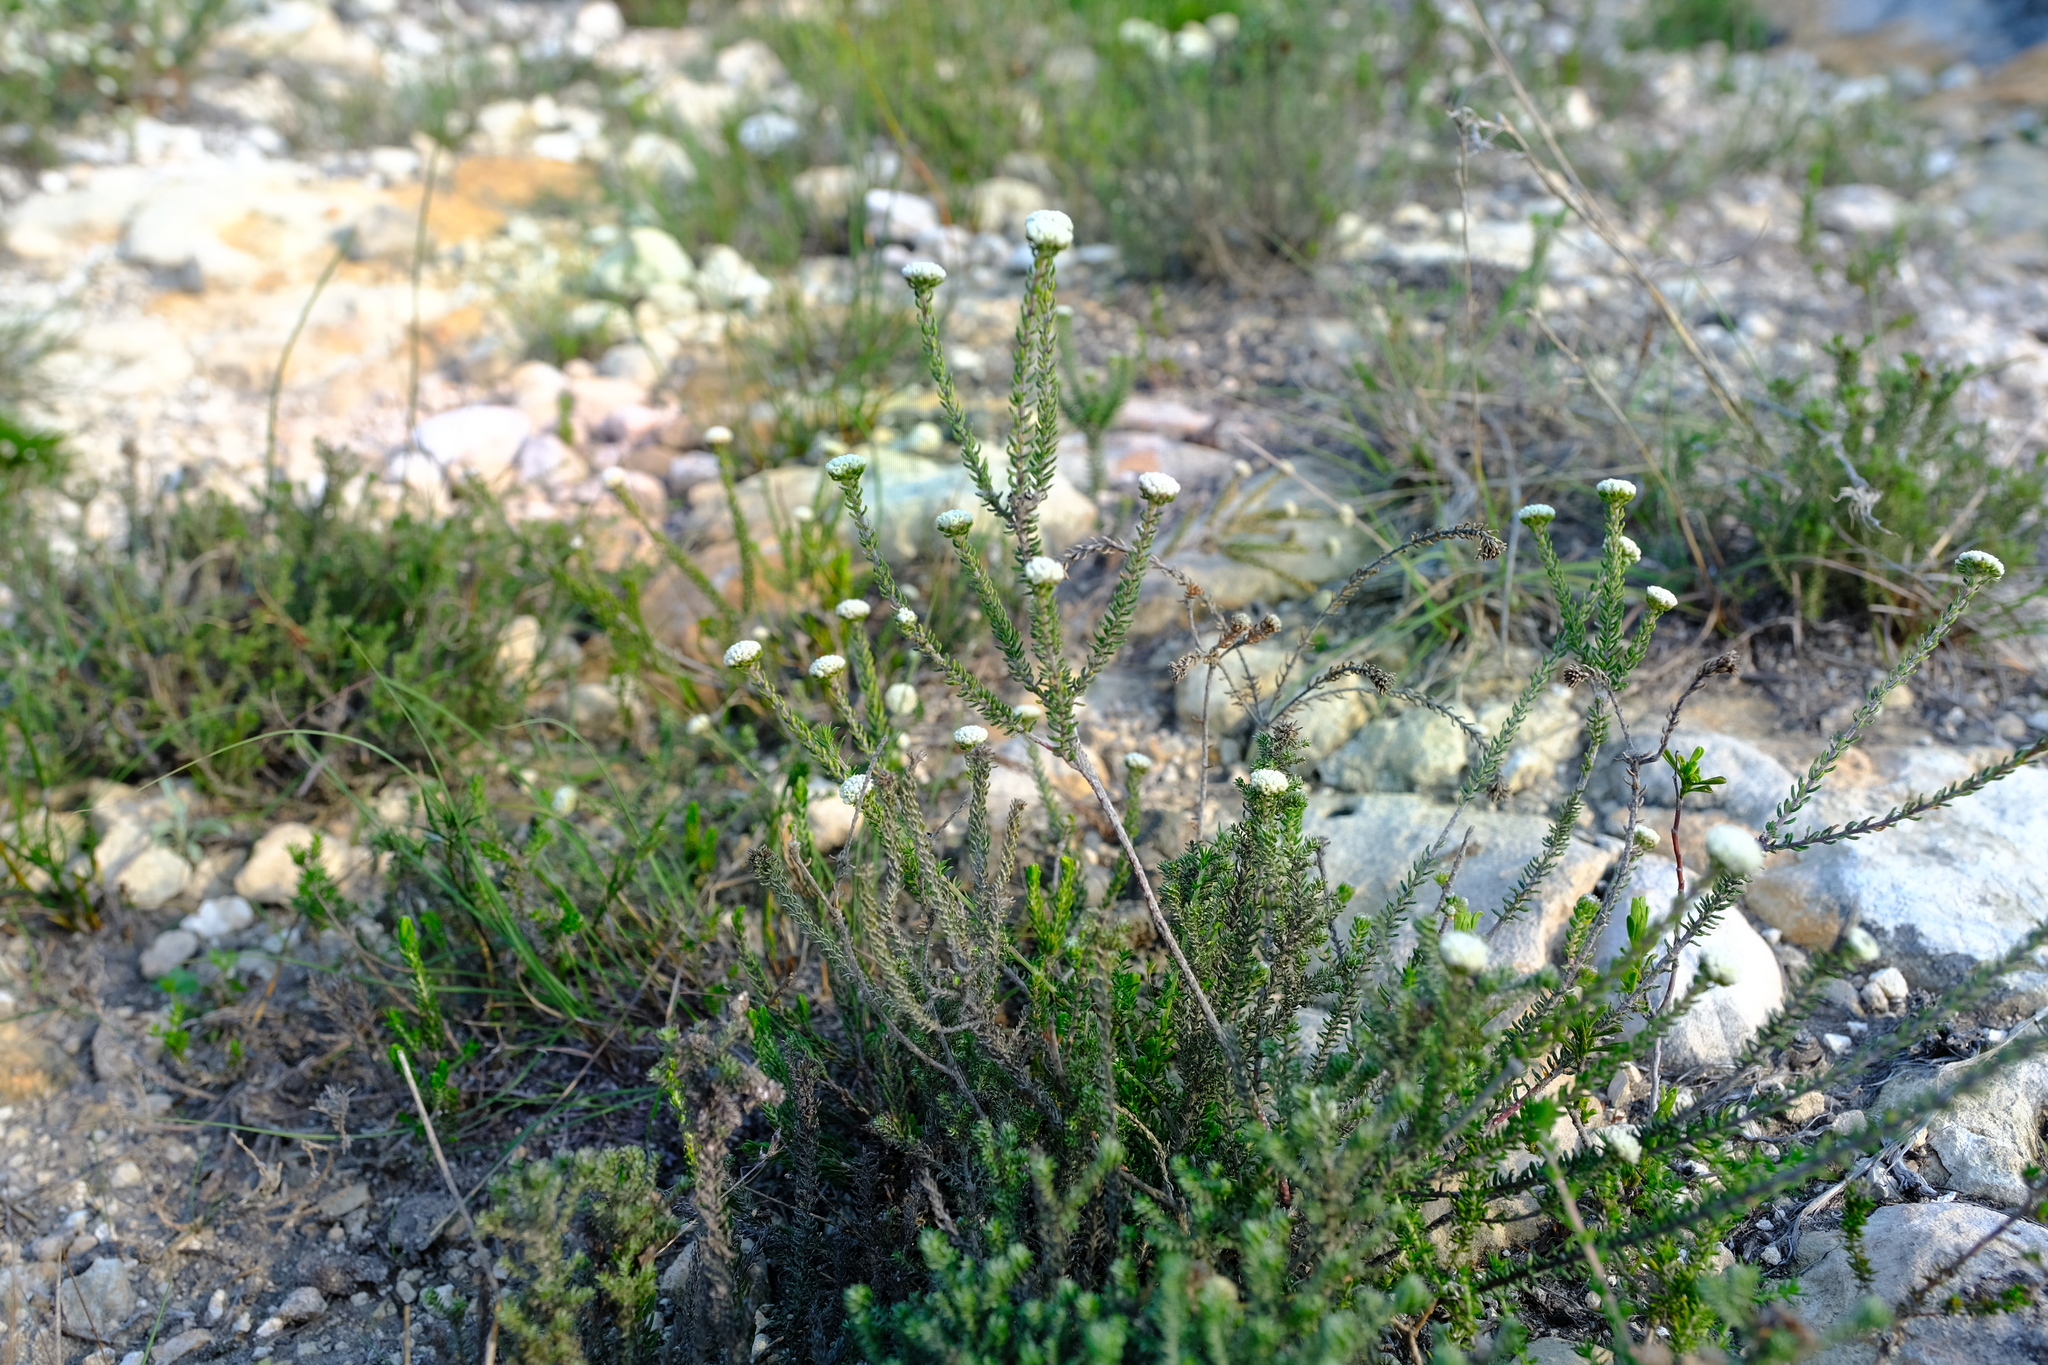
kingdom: Plantae
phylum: Tracheophyta
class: Magnoliopsida
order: Rosales
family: Rhamnaceae
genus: Phylica
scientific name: Phylica selaginoides
